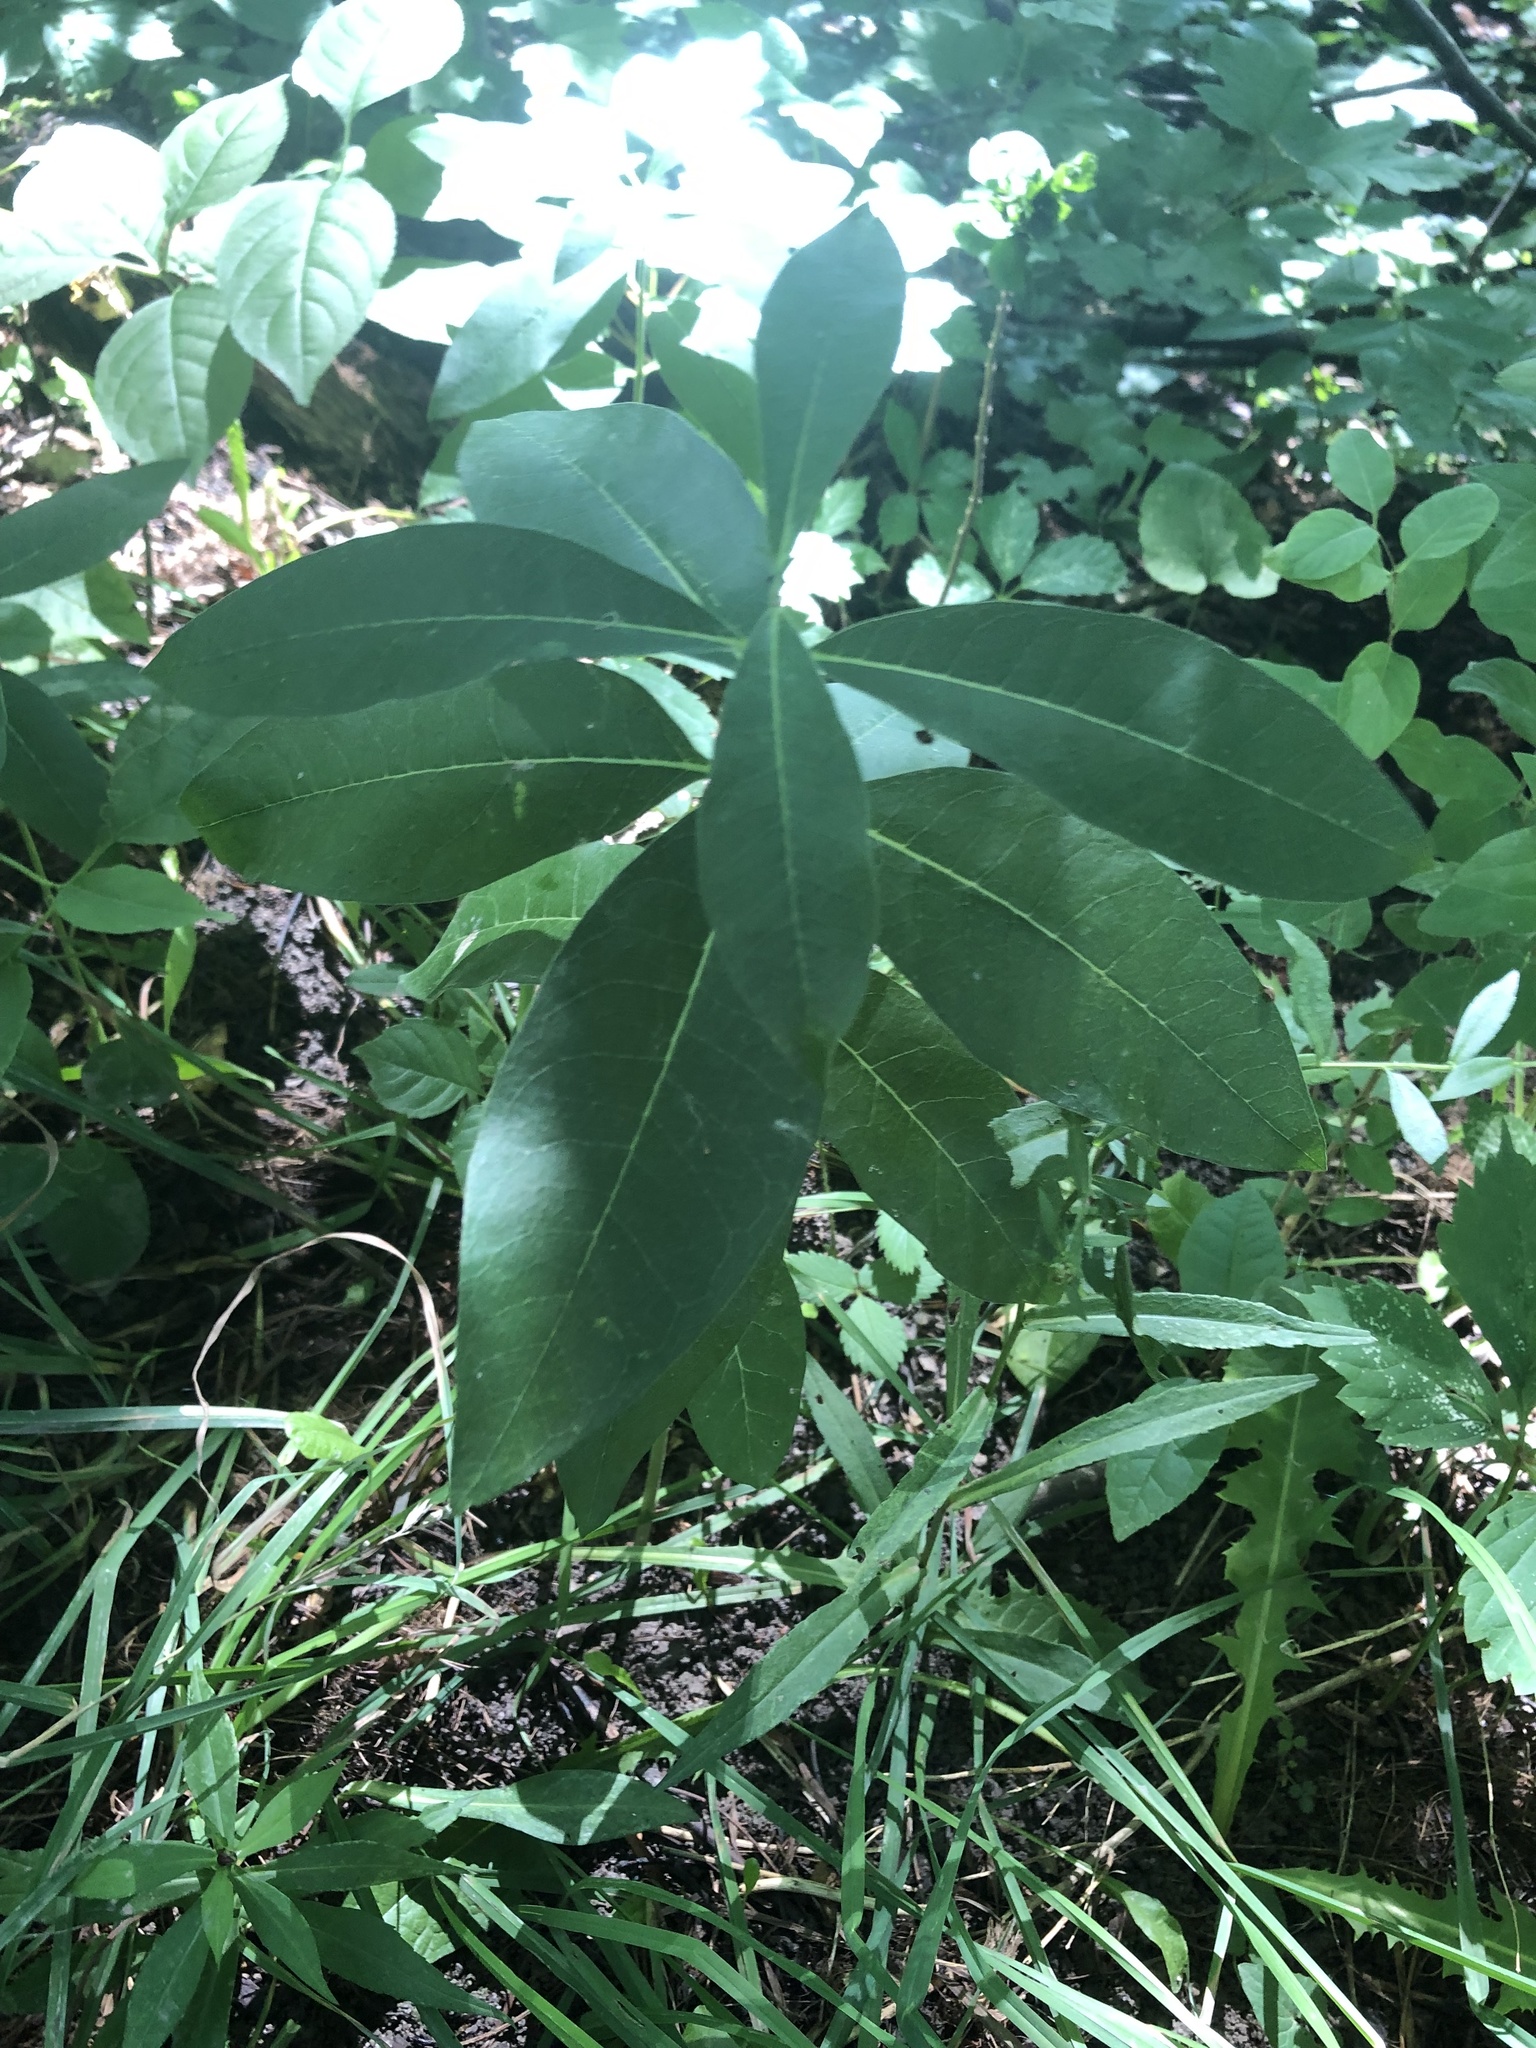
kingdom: Plantae
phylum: Tracheophyta
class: Magnoliopsida
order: Gentianales
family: Apocynaceae
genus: Asclepias
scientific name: Asclepias syriaca
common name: Common milkweed
